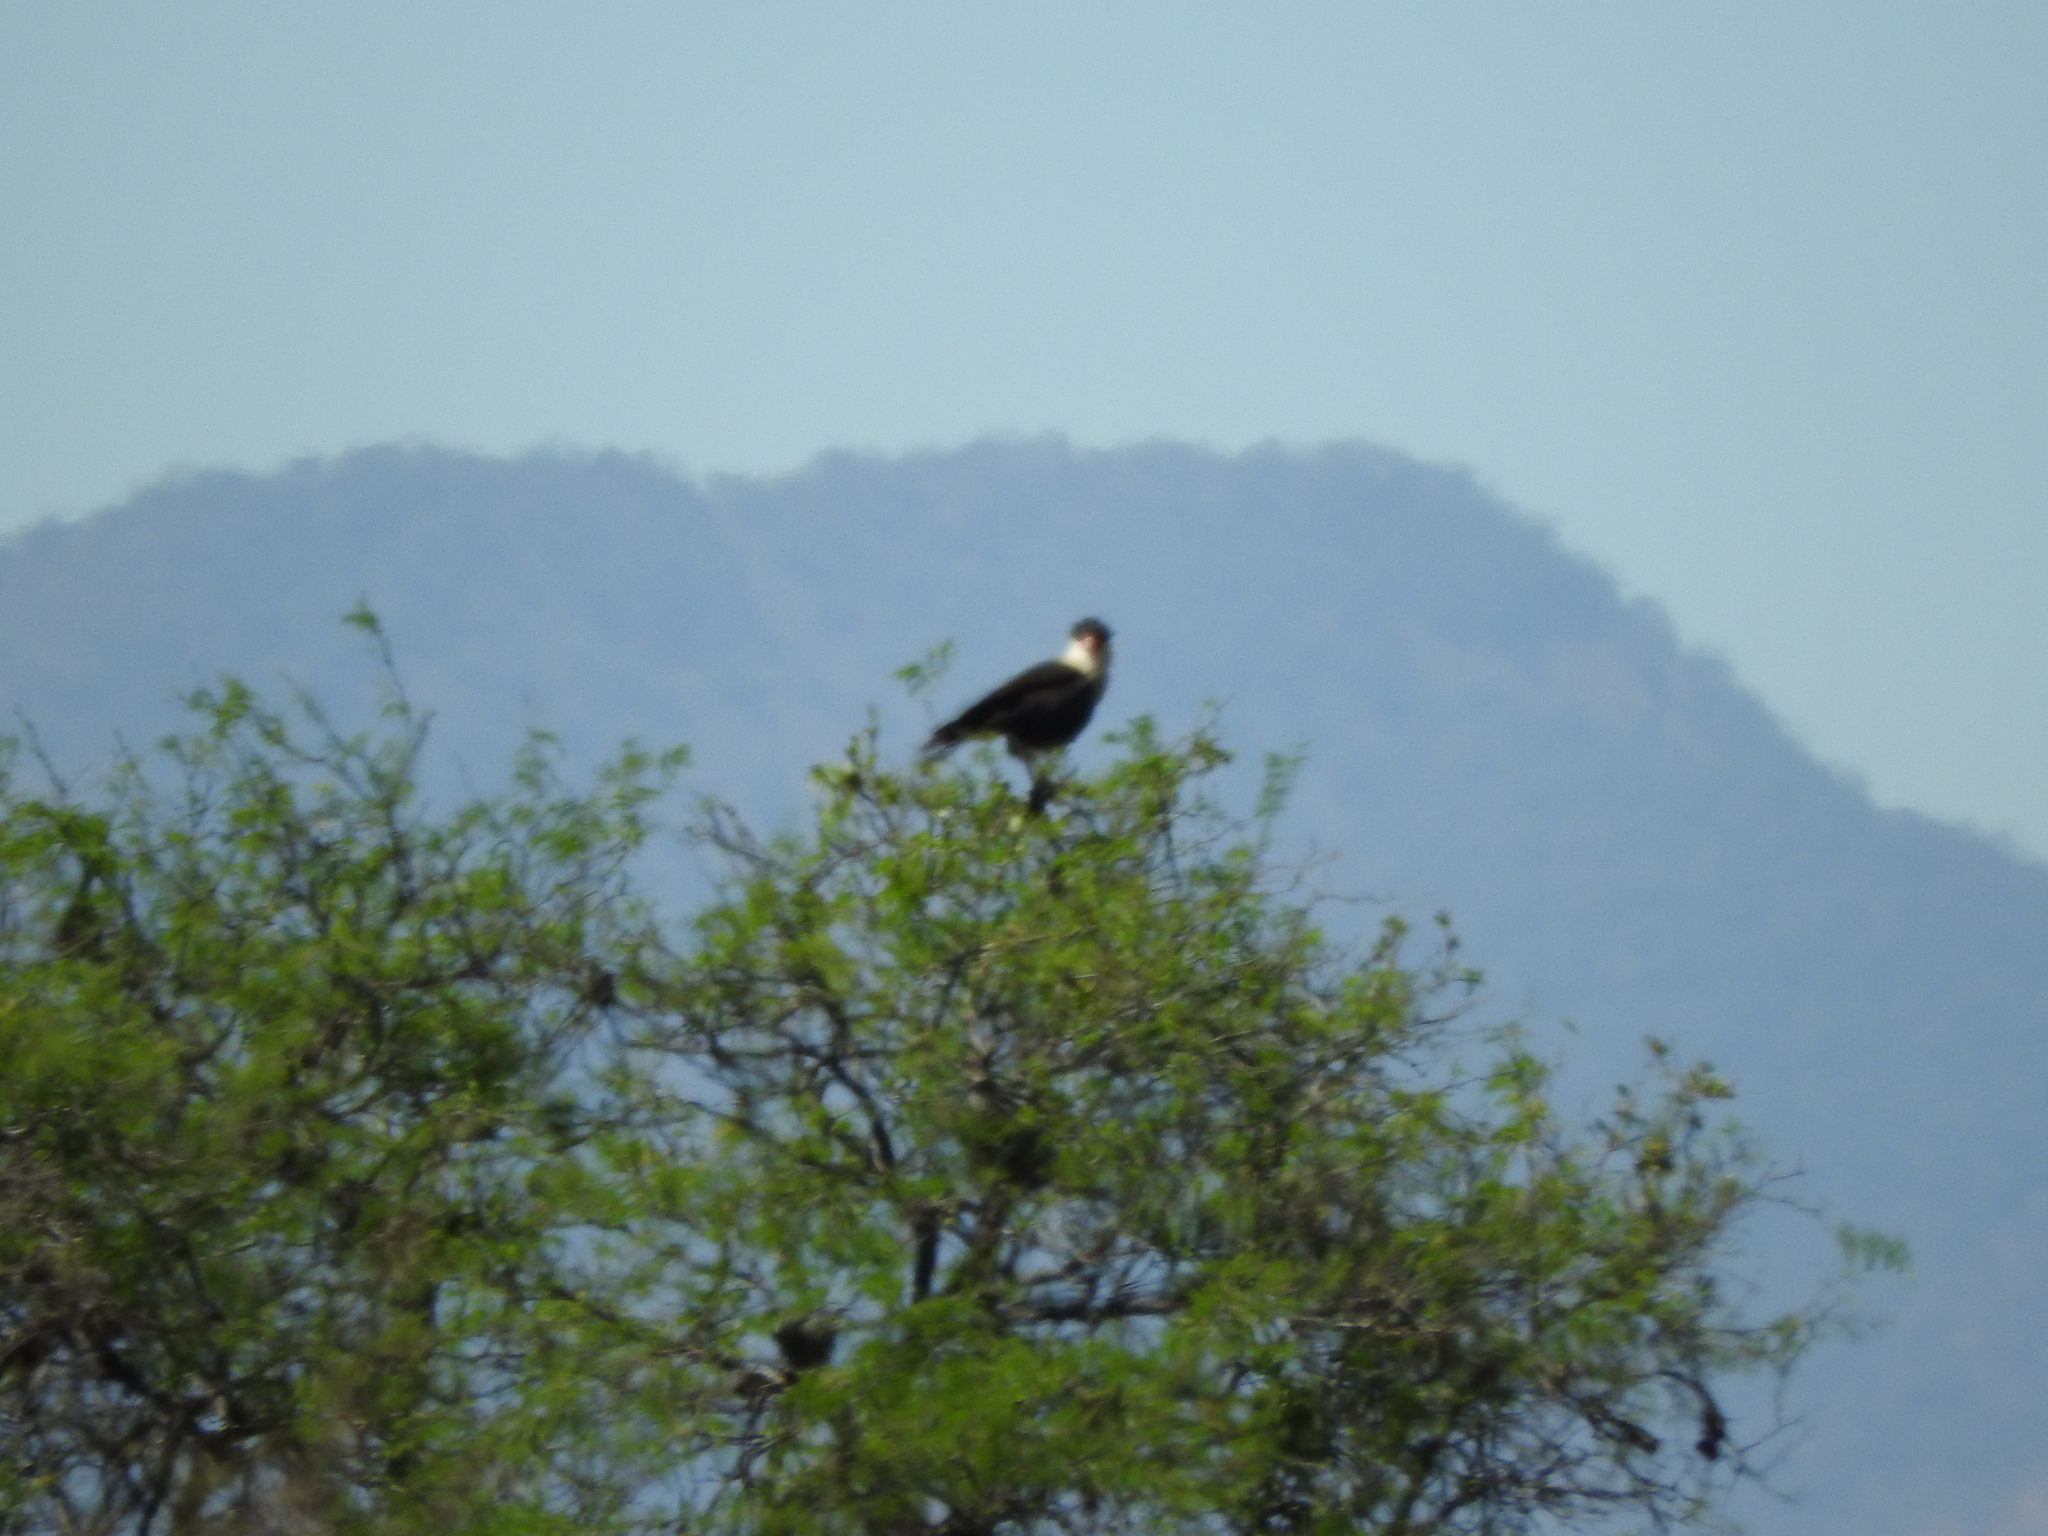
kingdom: Animalia
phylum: Chordata
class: Aves
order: Falconiformes
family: Falconidae
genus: Caracara
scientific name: Caracara plancus
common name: Southern caracara
